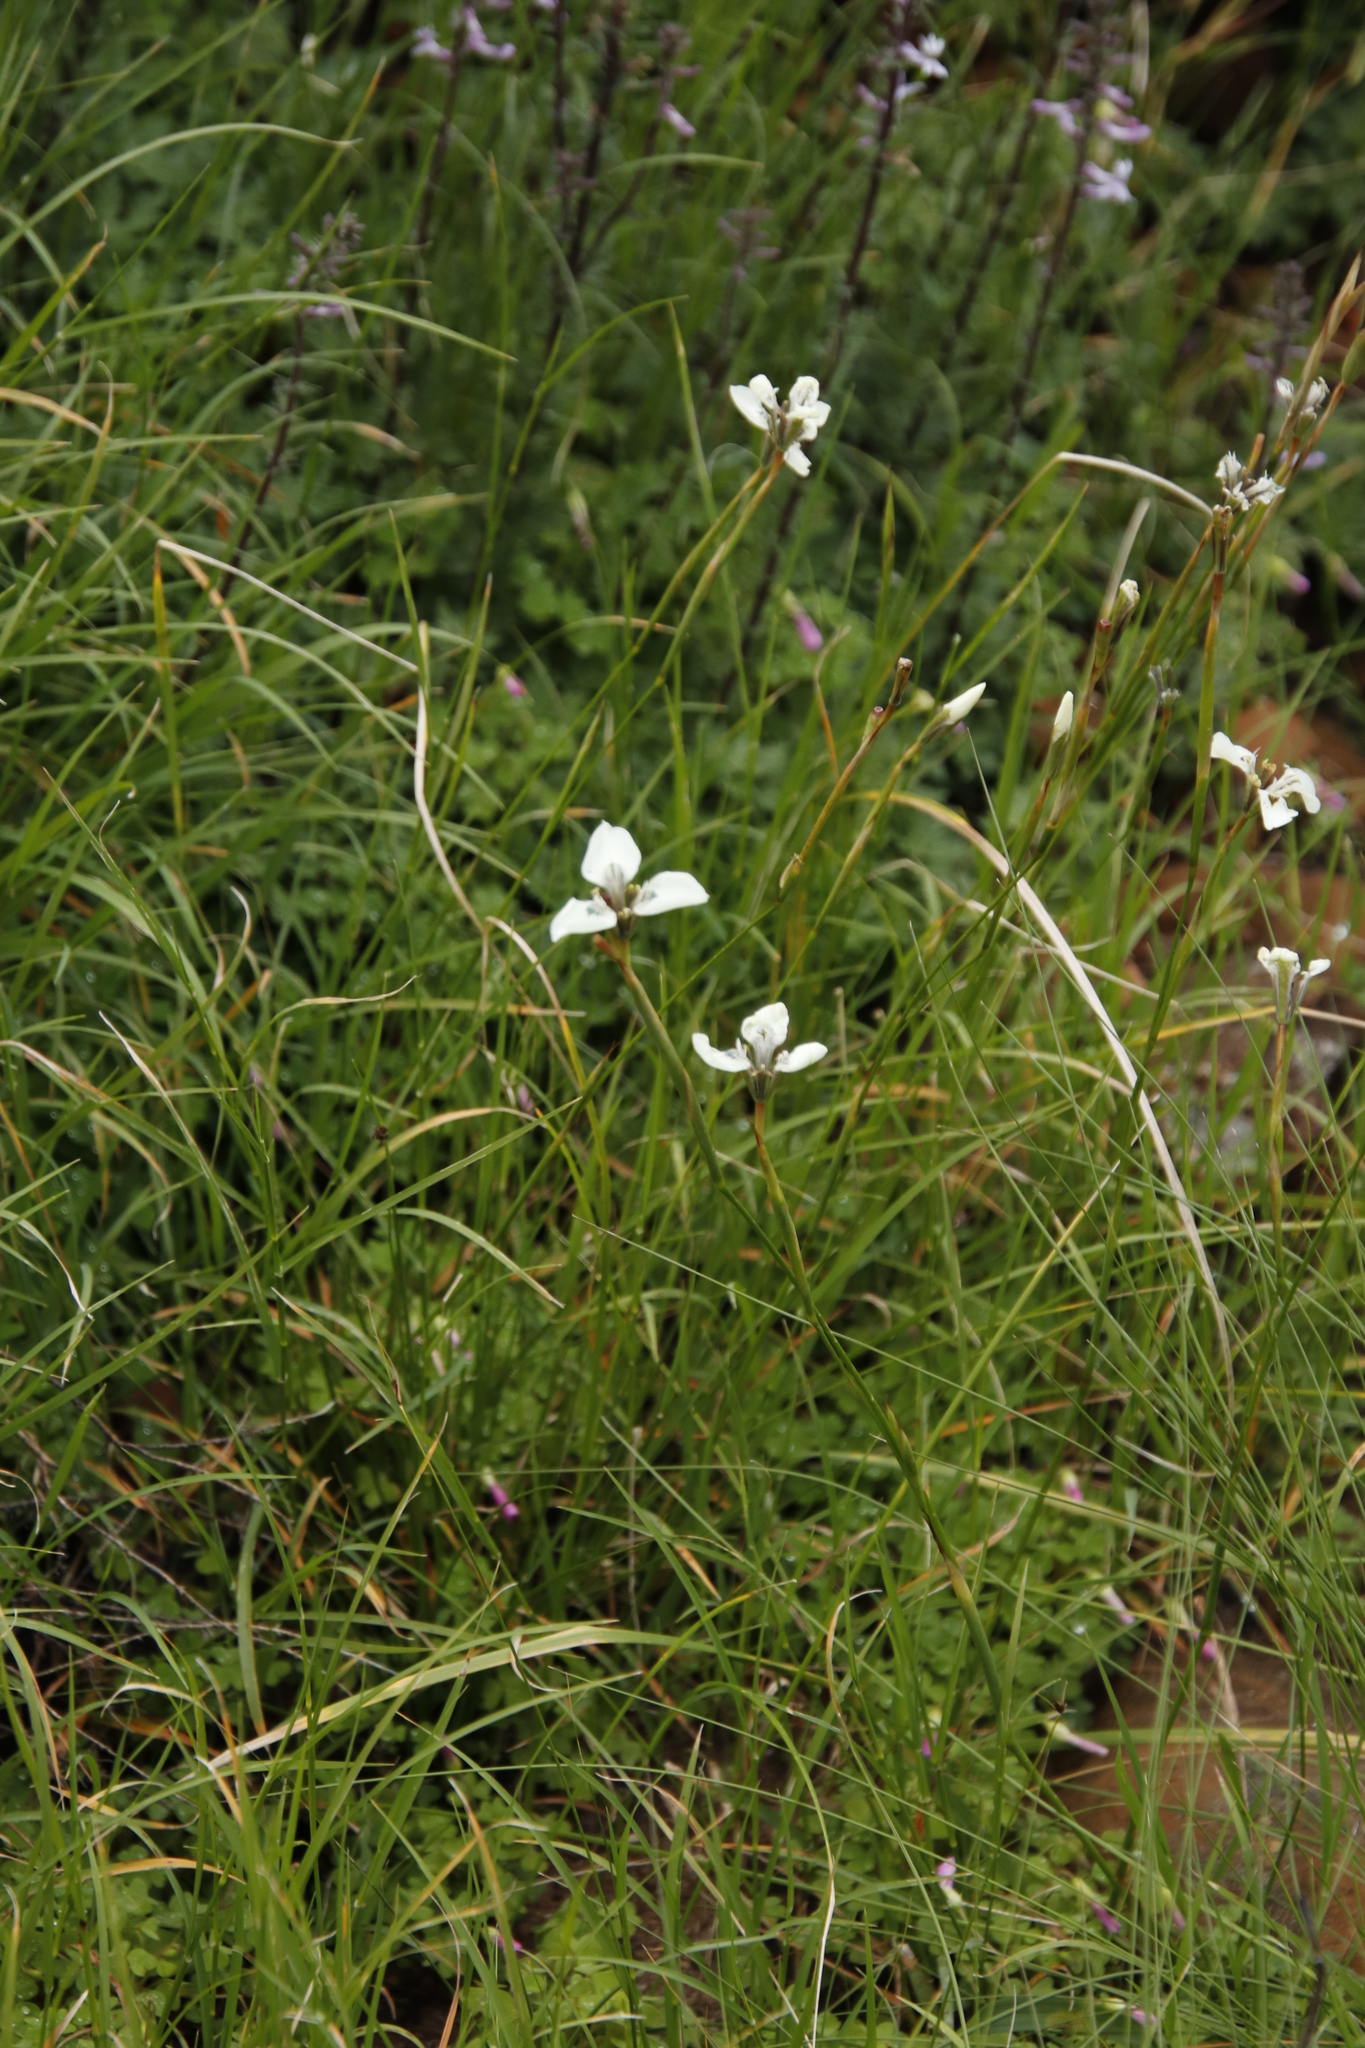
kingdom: Plantae
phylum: Tracheophyta
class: Liliopsida
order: Asparagales
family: Iridaceae
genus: Moraea
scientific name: Moraea tricuspidata
